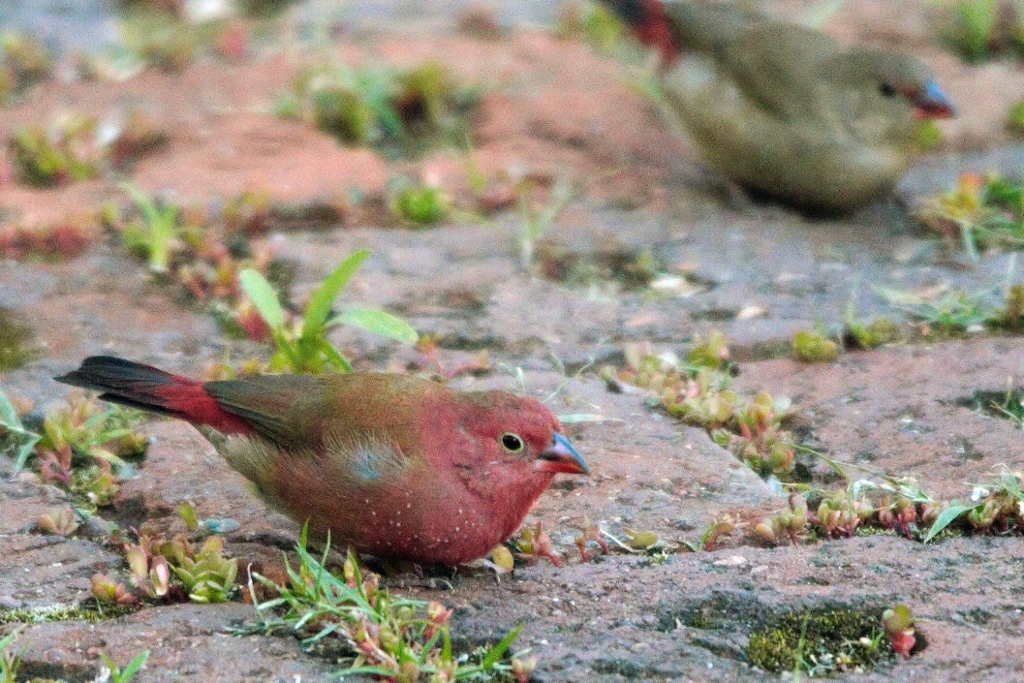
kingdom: Animalia
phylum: Chordata
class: Aves
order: Passeriformes
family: Estrildidae
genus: Lagonosticta
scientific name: Lagonosticta senegala
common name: Red-billed firefinch
